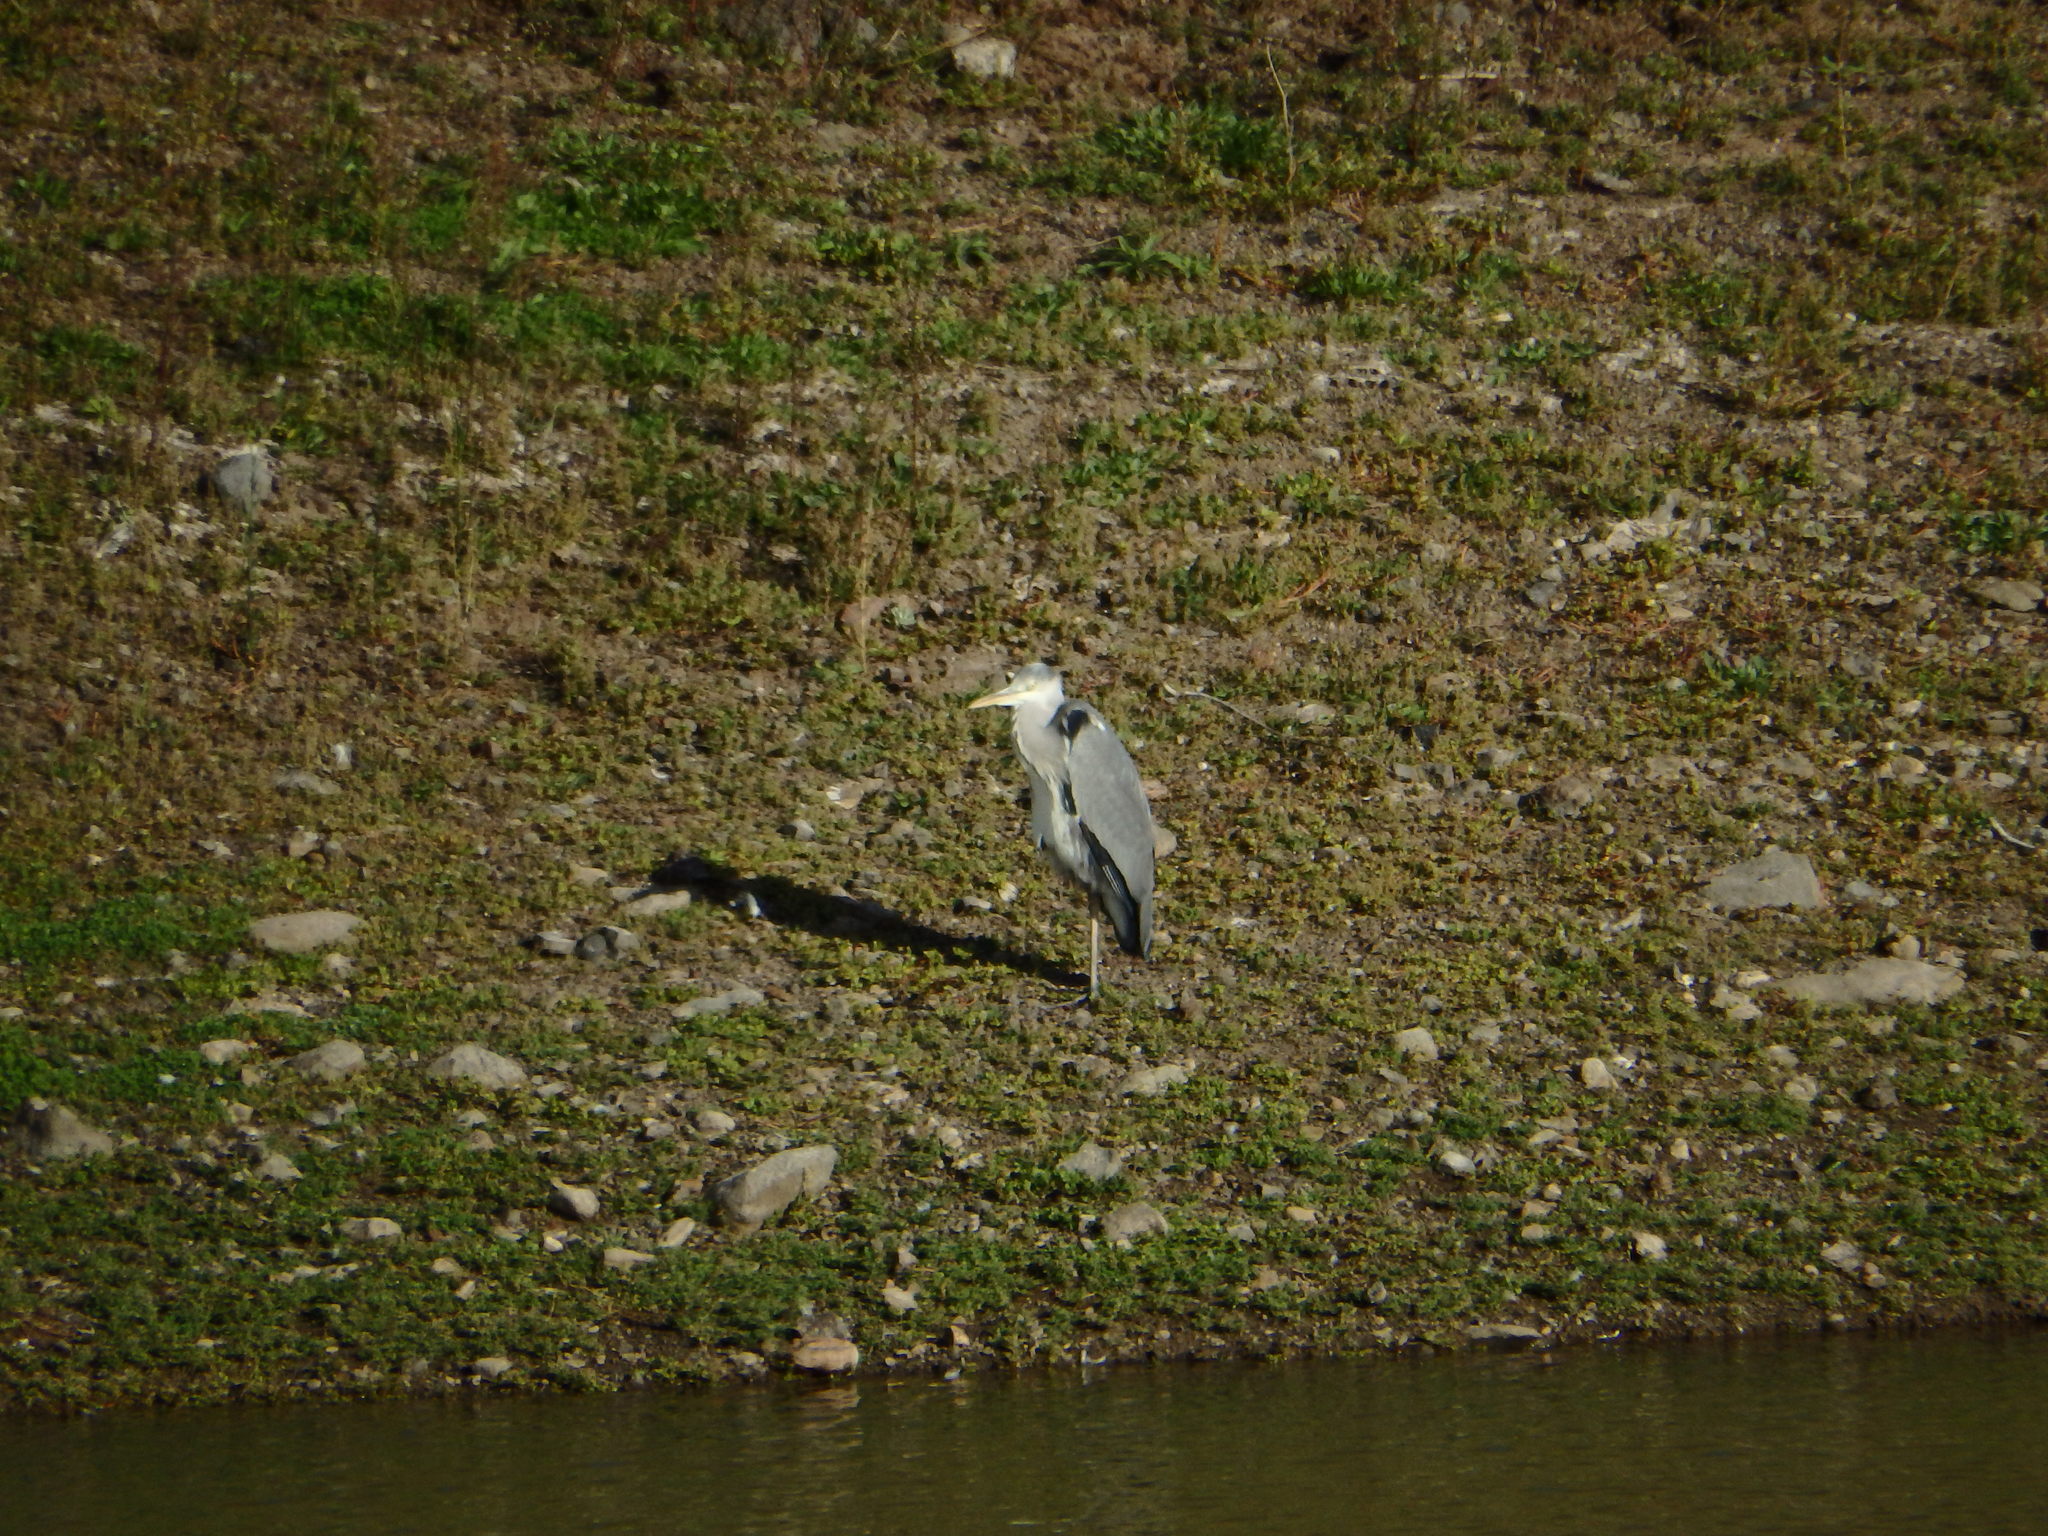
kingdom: Animalia
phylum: Chordata
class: Aves
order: Pelecaniformes
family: Ardeidae
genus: Ardea
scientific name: Ardea cinerea
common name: Grey heron
